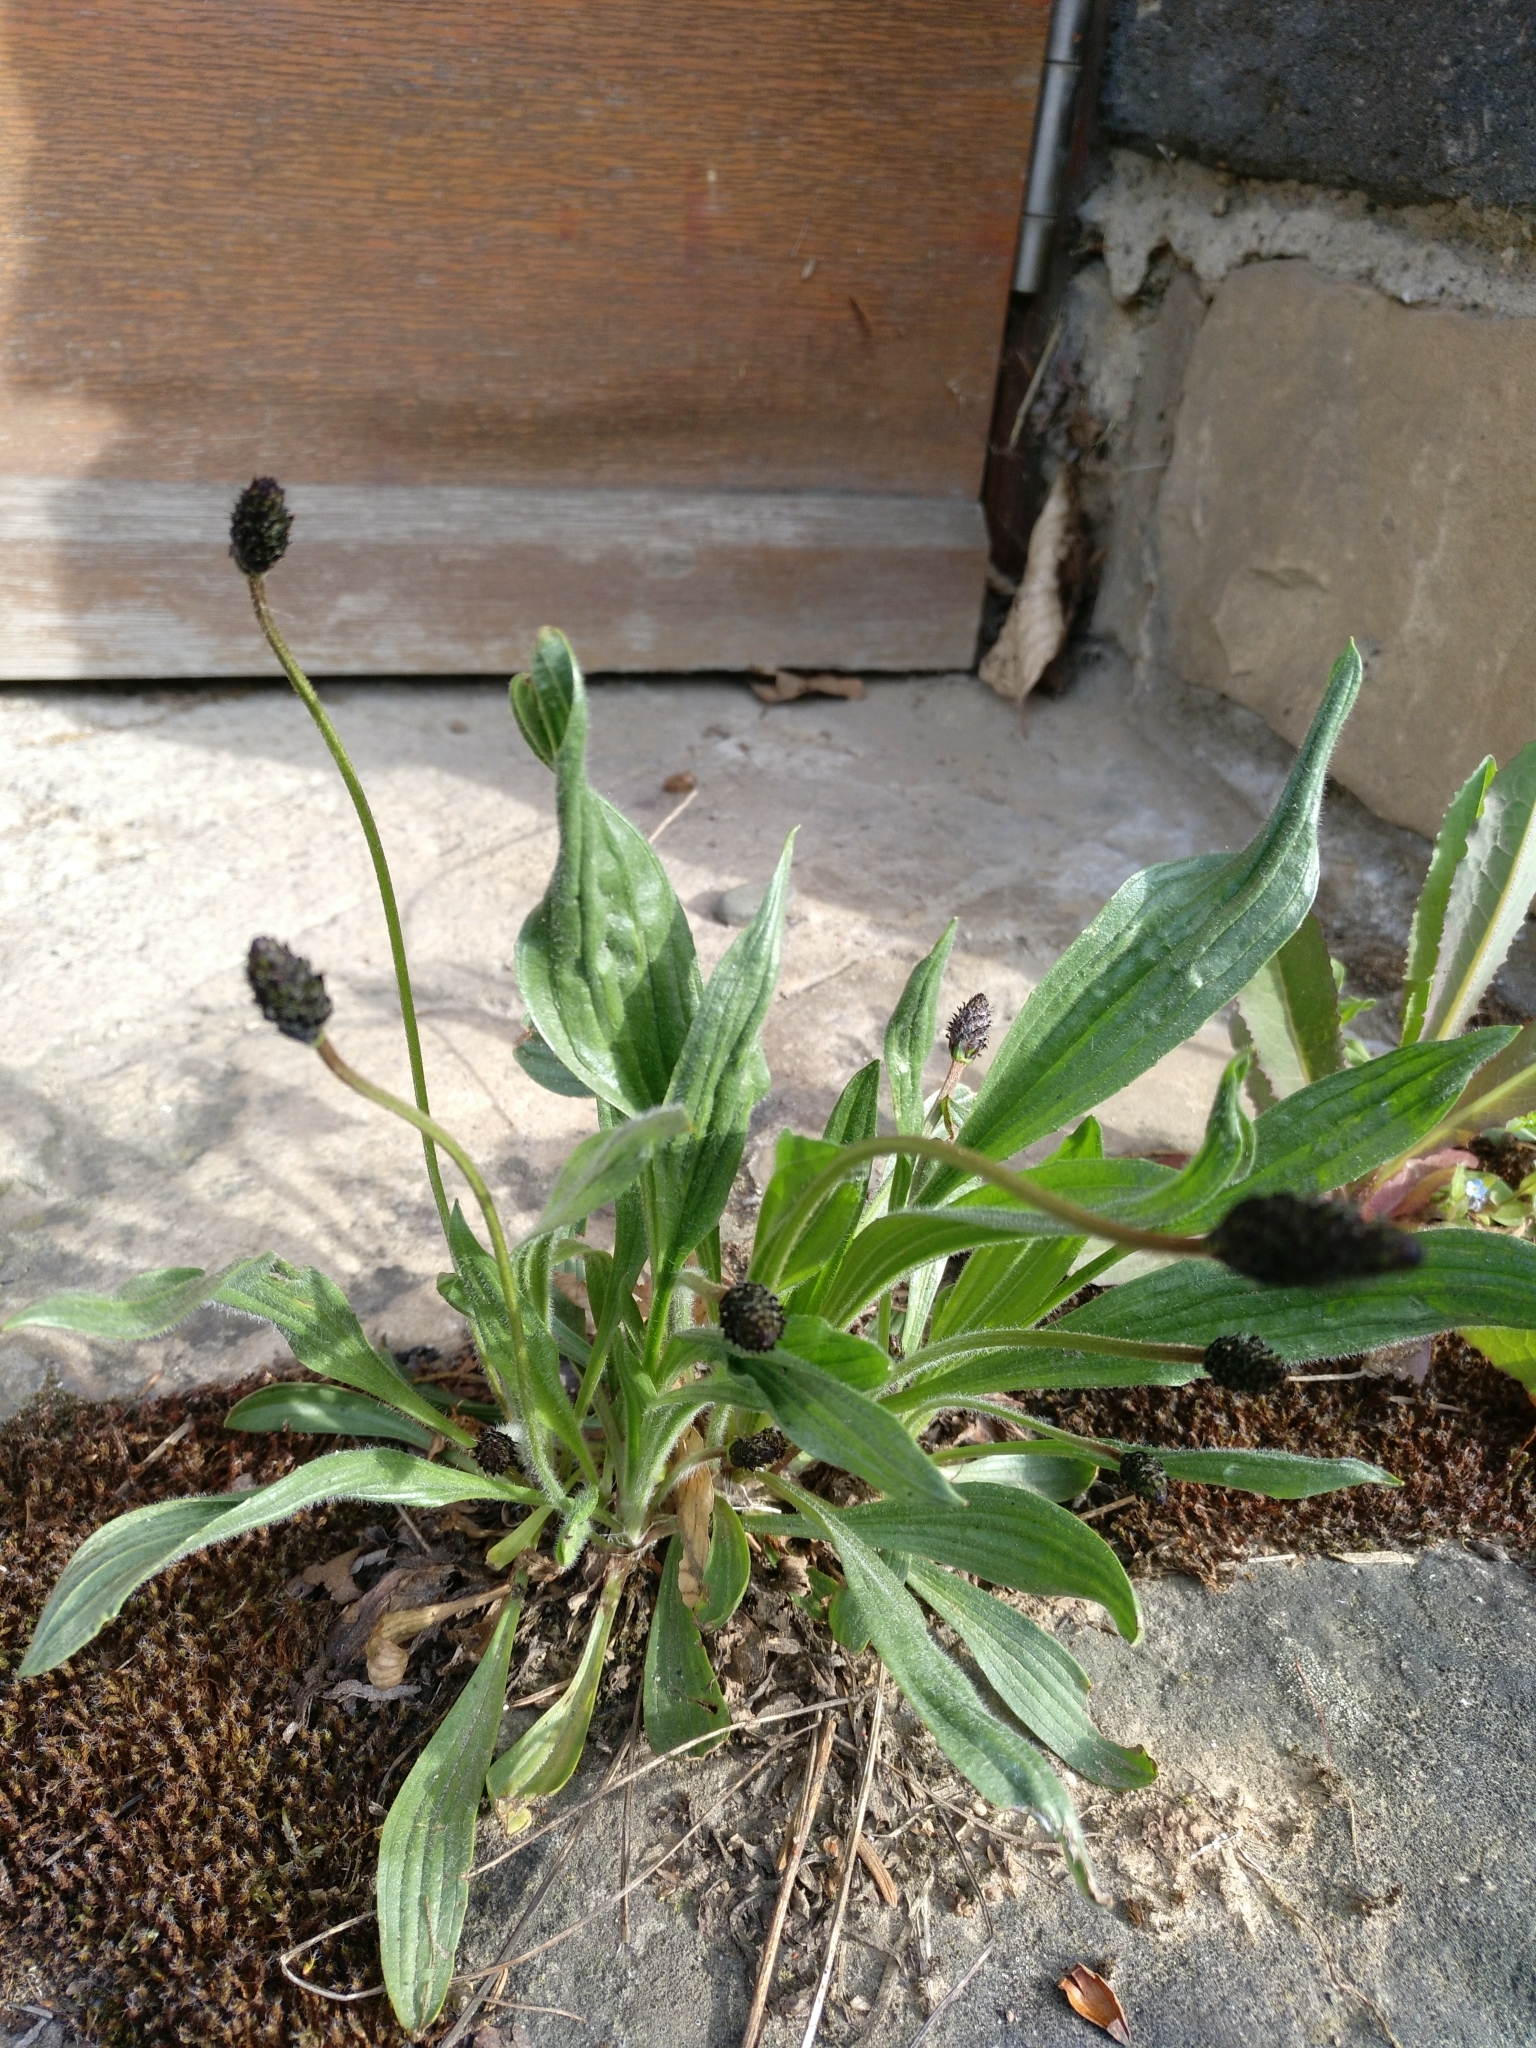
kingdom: Plantae
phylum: Tracheophyta
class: Magnoliopsida
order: Lamiales
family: Plantaginaceae
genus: Plantago
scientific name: Plantago lanceolata
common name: Ribwort plantain
